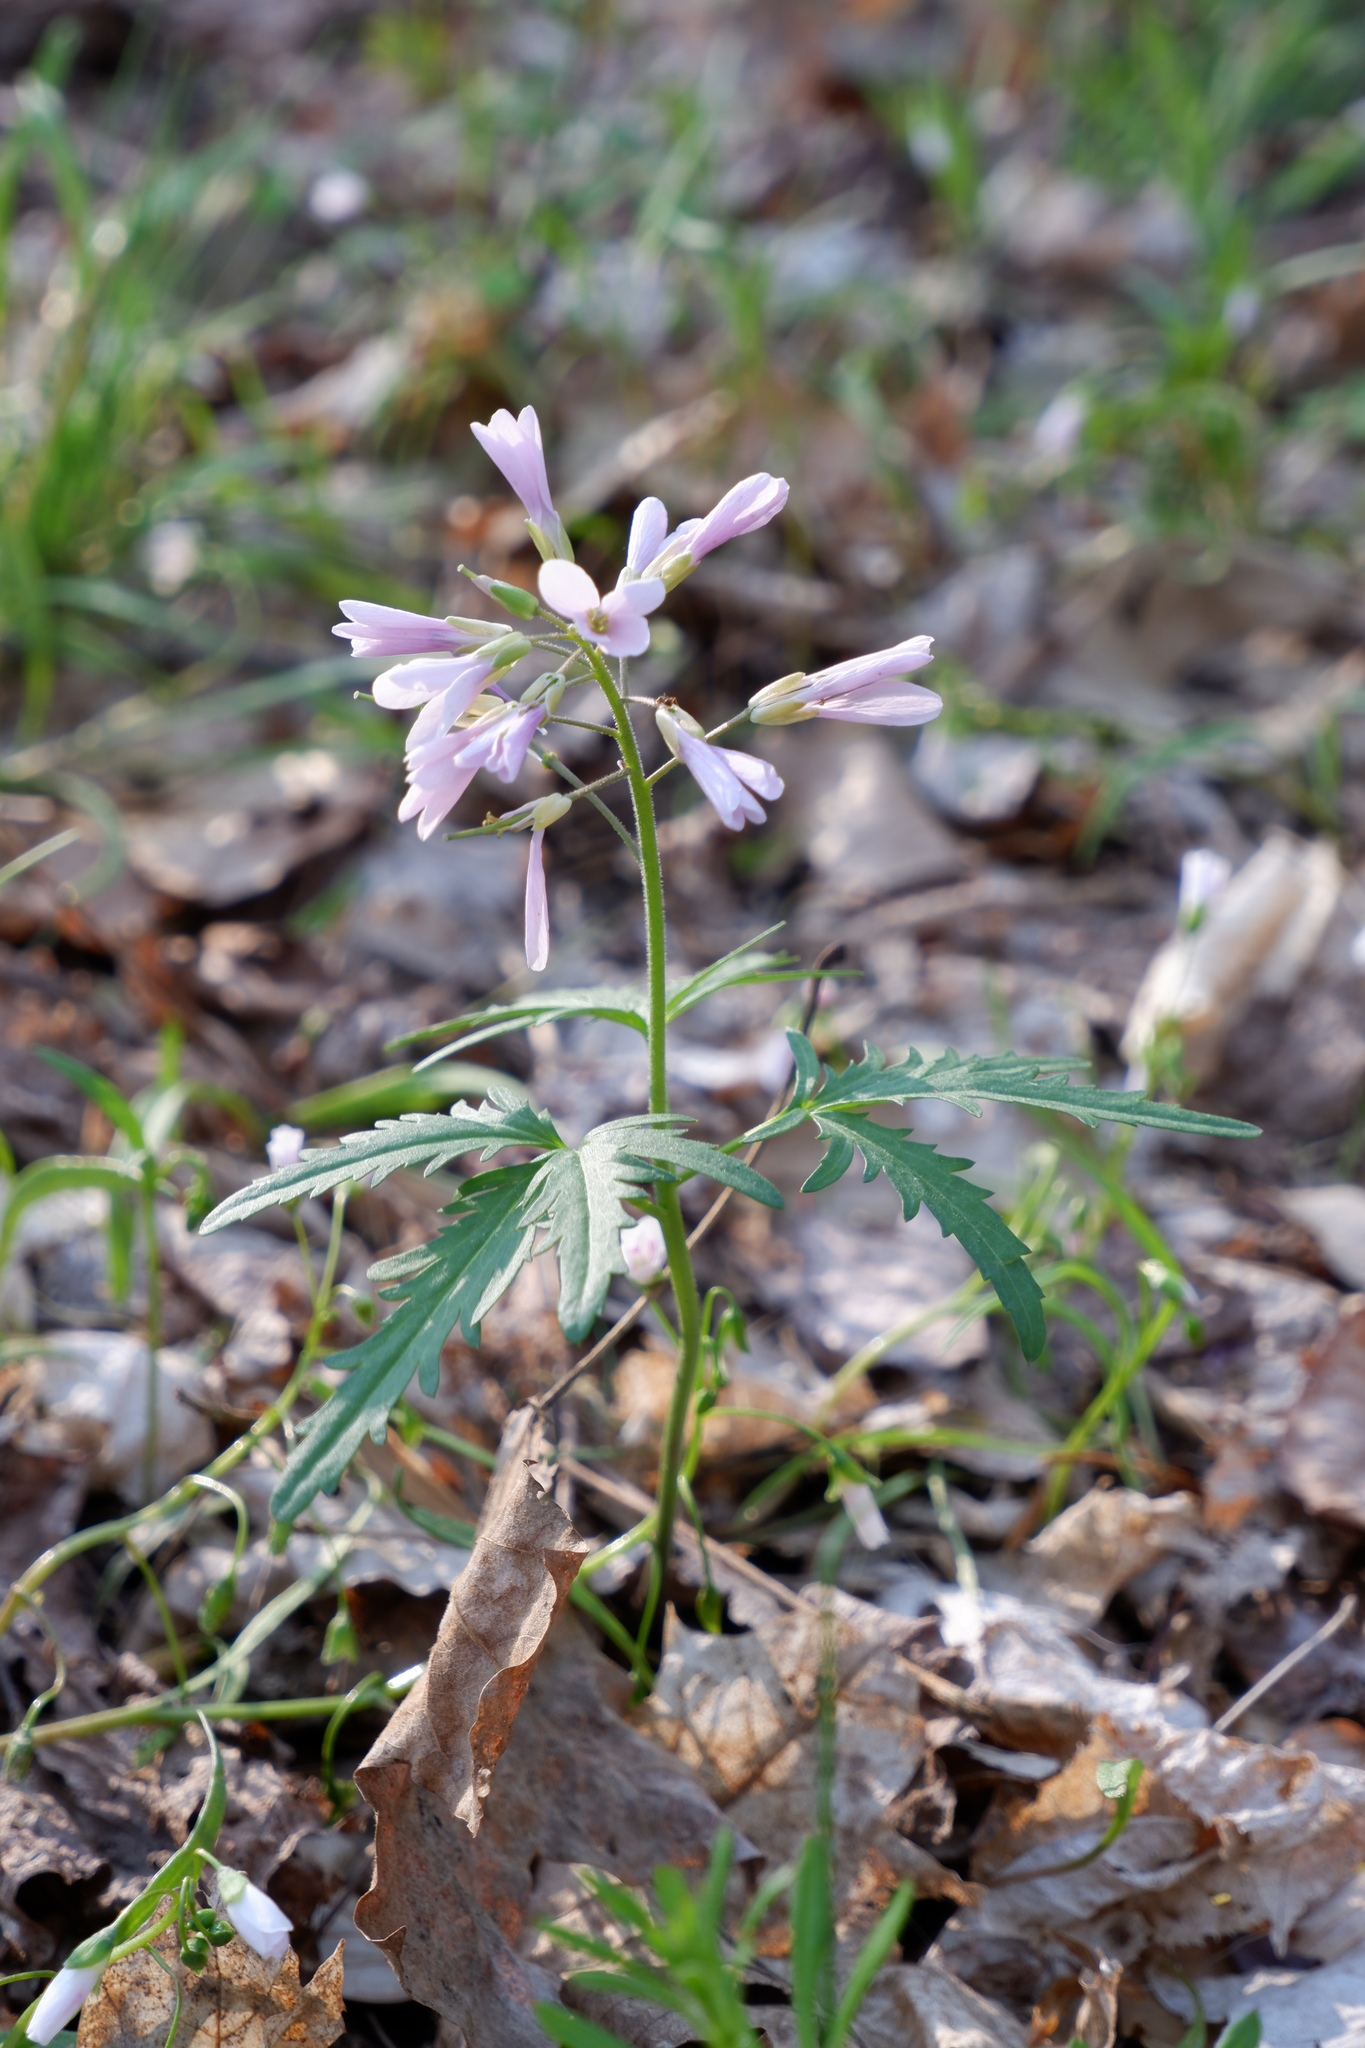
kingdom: Plantae
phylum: Tracheophyta
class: Magnoliopsida
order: Brassicales
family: Brassicaceae
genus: Cardamine
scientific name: Cardamine concatenata
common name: Cut-leaf toothcup
